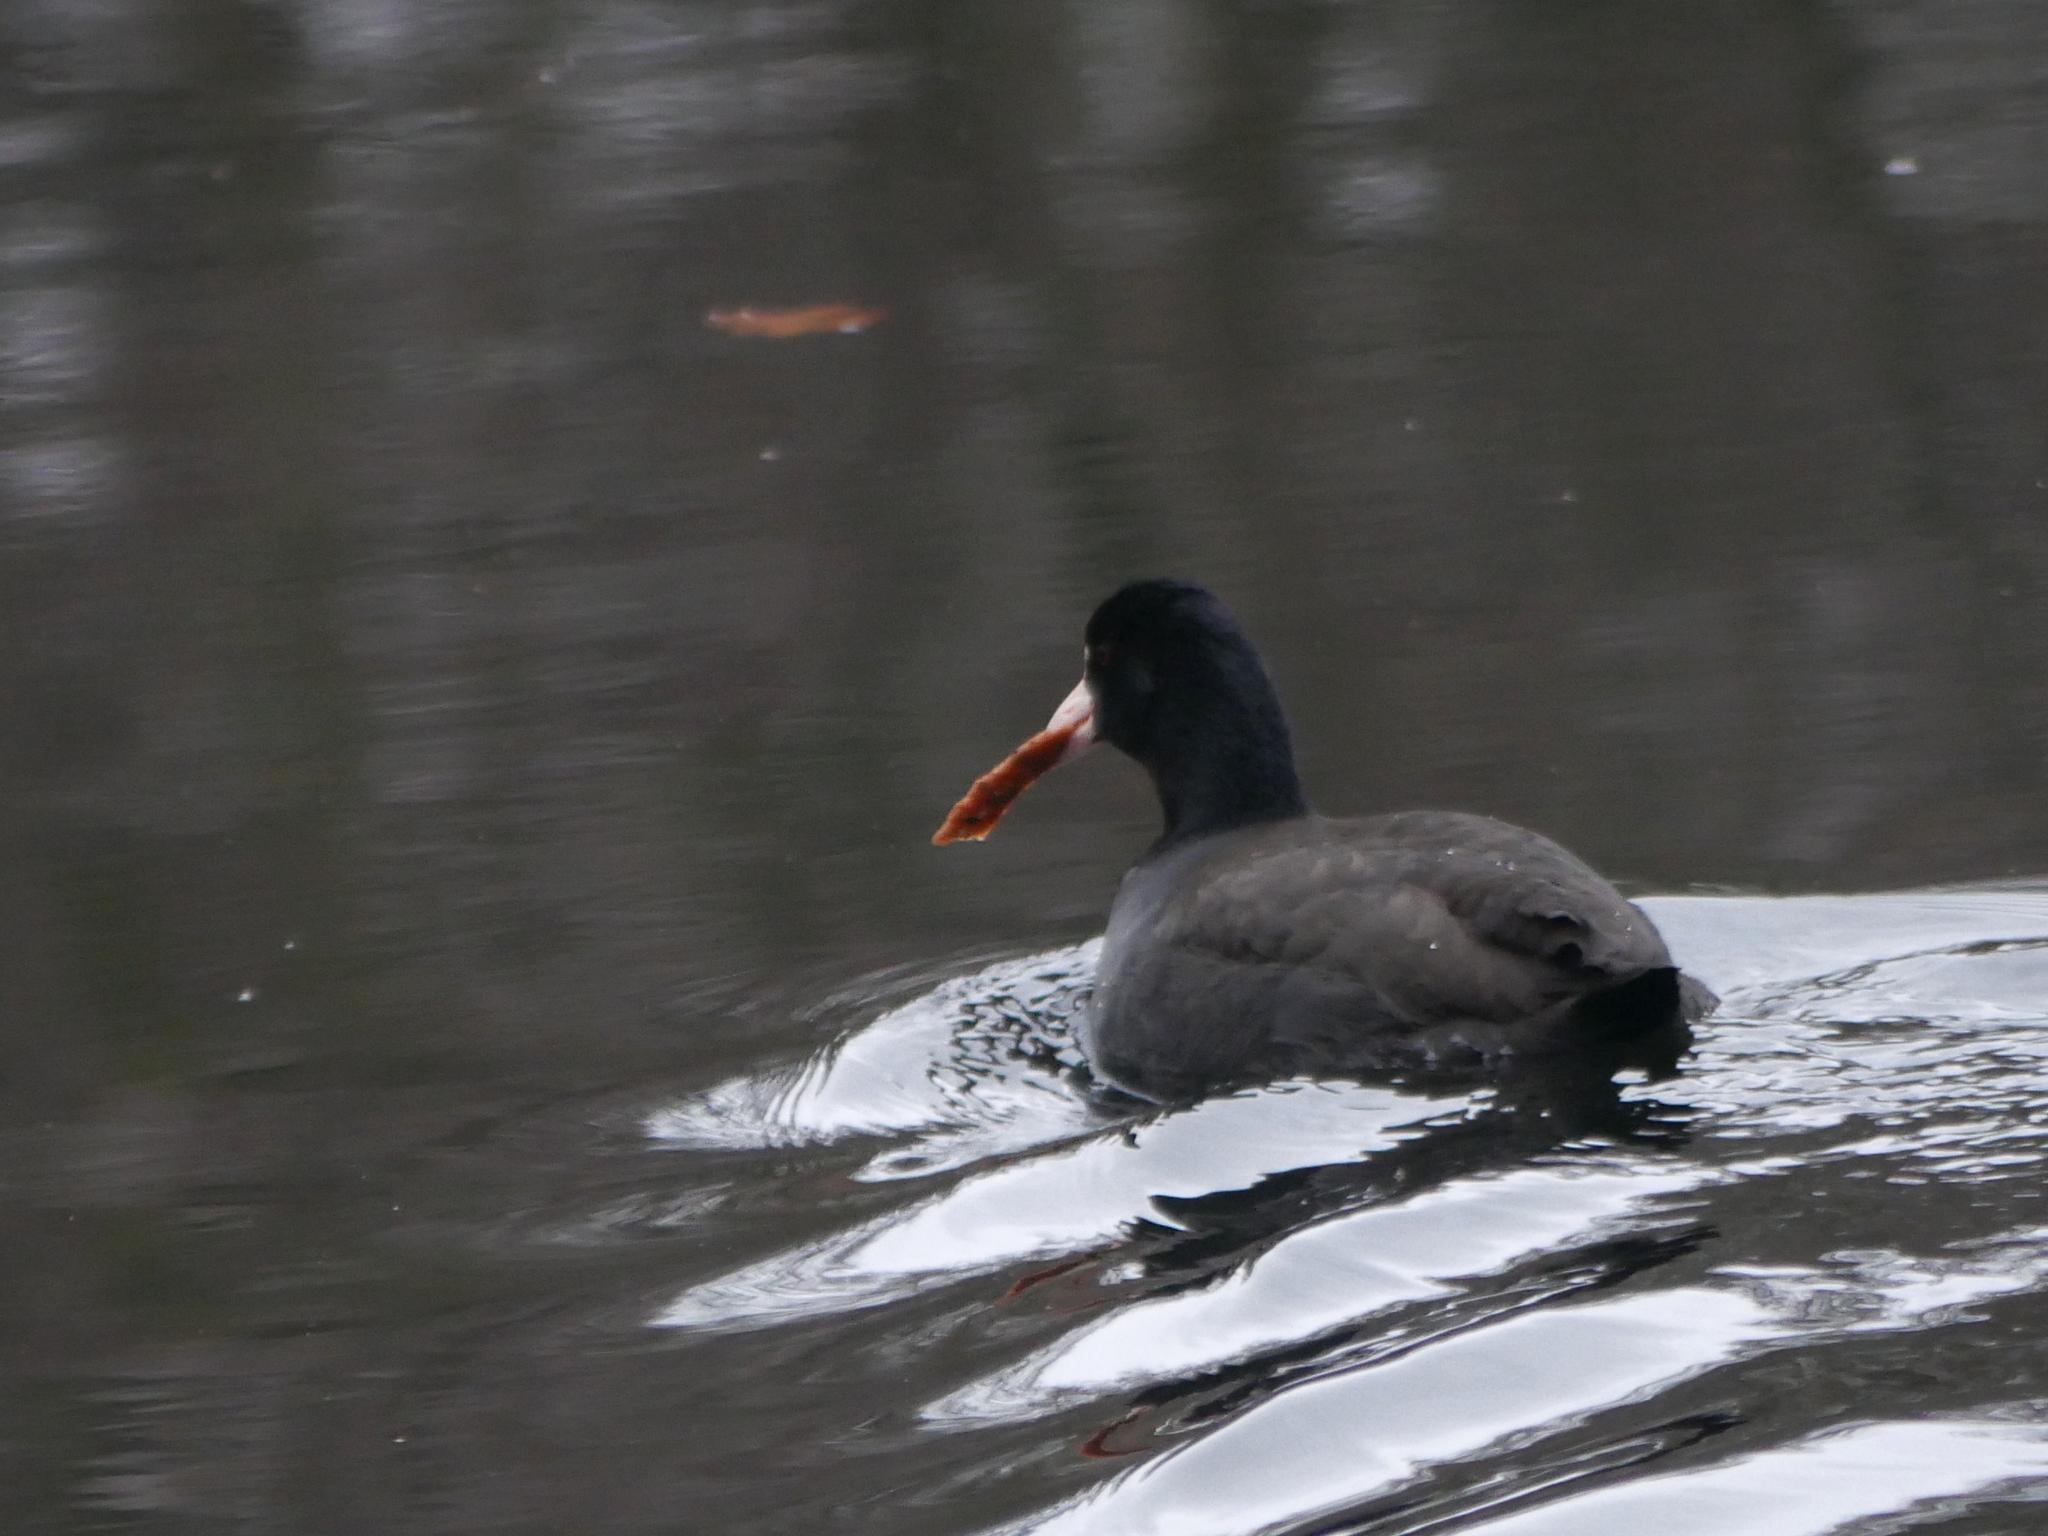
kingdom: Animalia
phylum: Chordata
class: Aves
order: Gruiformes
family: Rallidae
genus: Fulica
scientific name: Fulica atra
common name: Eurasian coot
